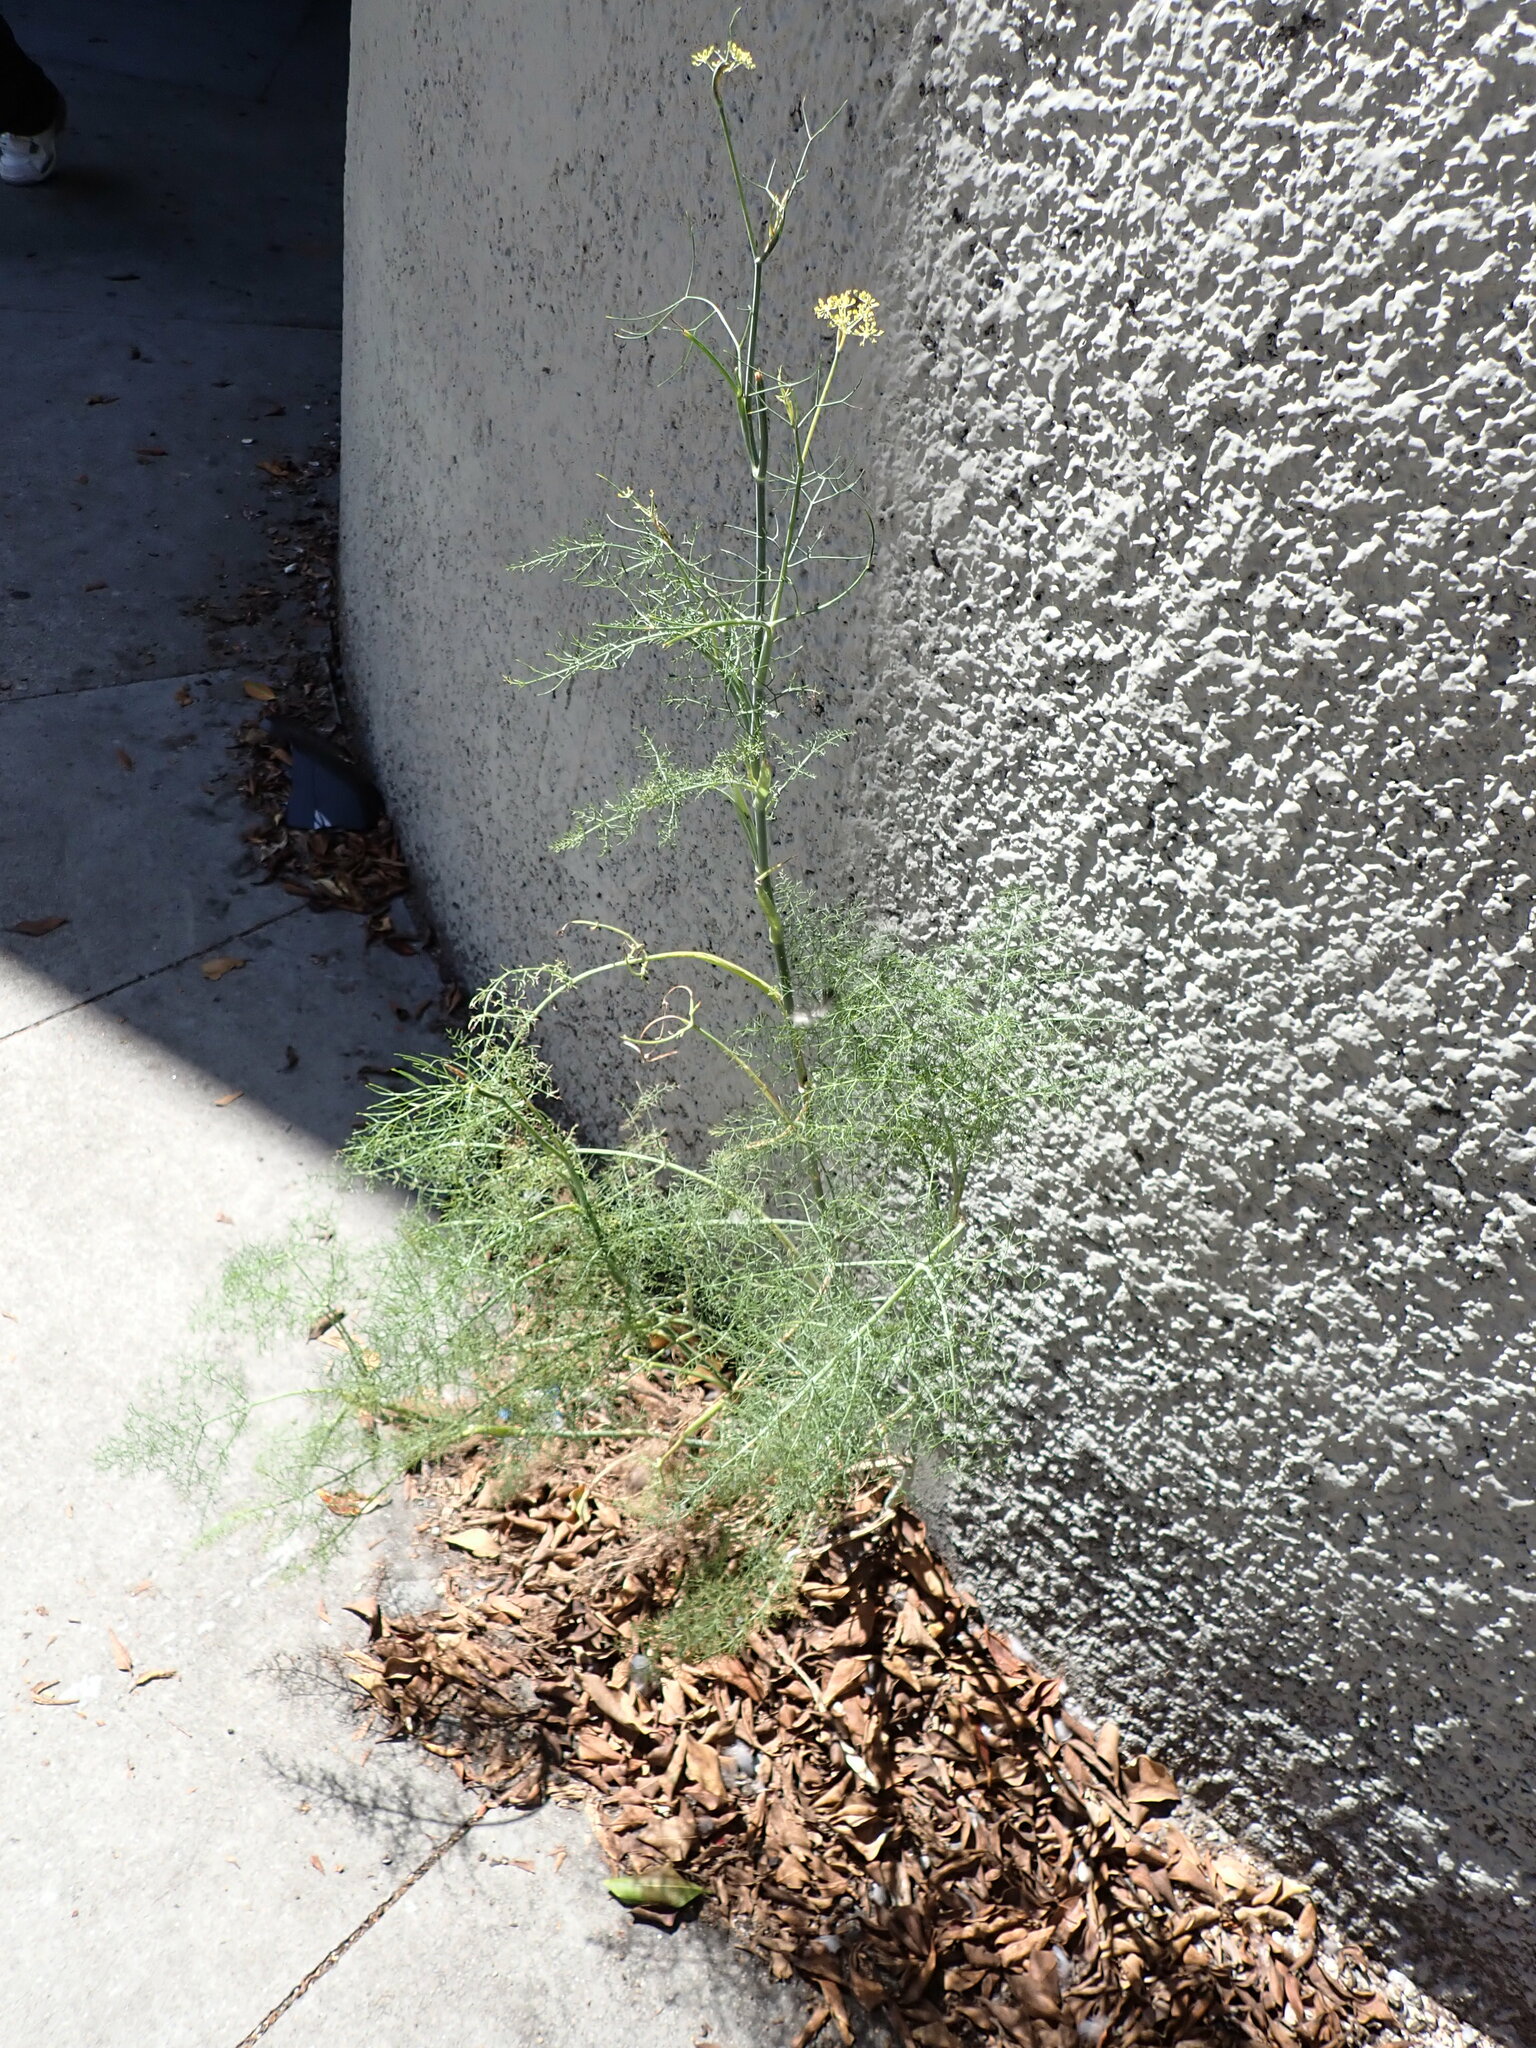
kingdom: Plantae
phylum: Tracheophyta
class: Magnoliopsida
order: Apiales
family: Apiaceae
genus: Foeniculum
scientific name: Foeniculum vulgare
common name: Fennel
